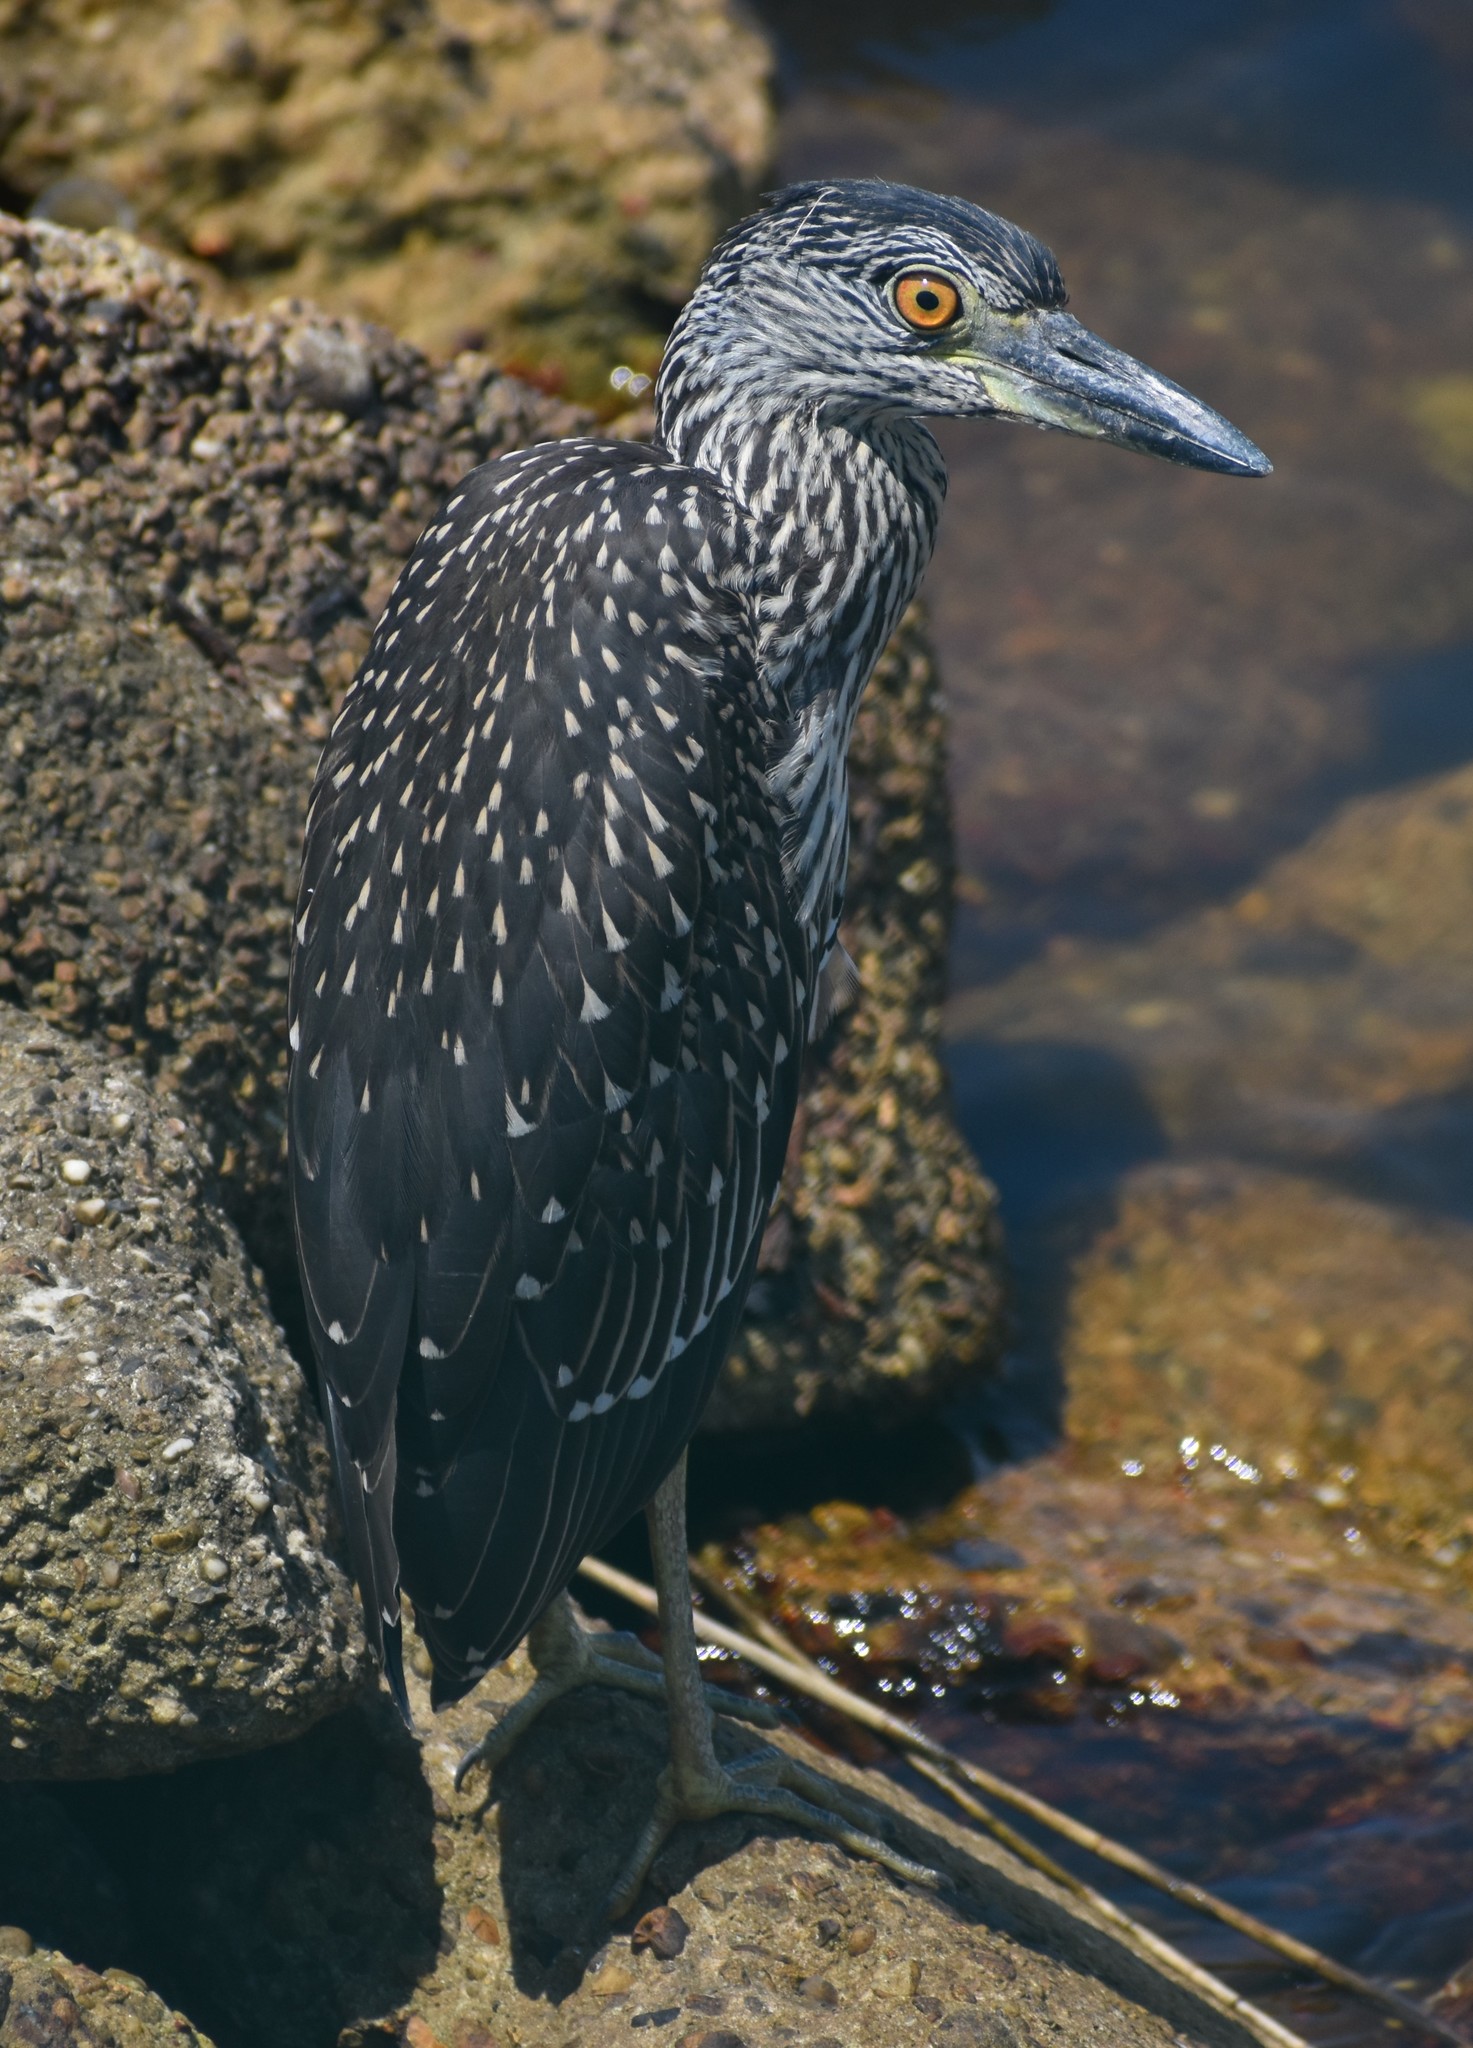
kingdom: Animalia
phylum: Chordata
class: Aves
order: Pelecaniformes
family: Ardeidae
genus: Nyctanassa
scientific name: Nyctanassa violacea
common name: Yellow-crowned night heron
